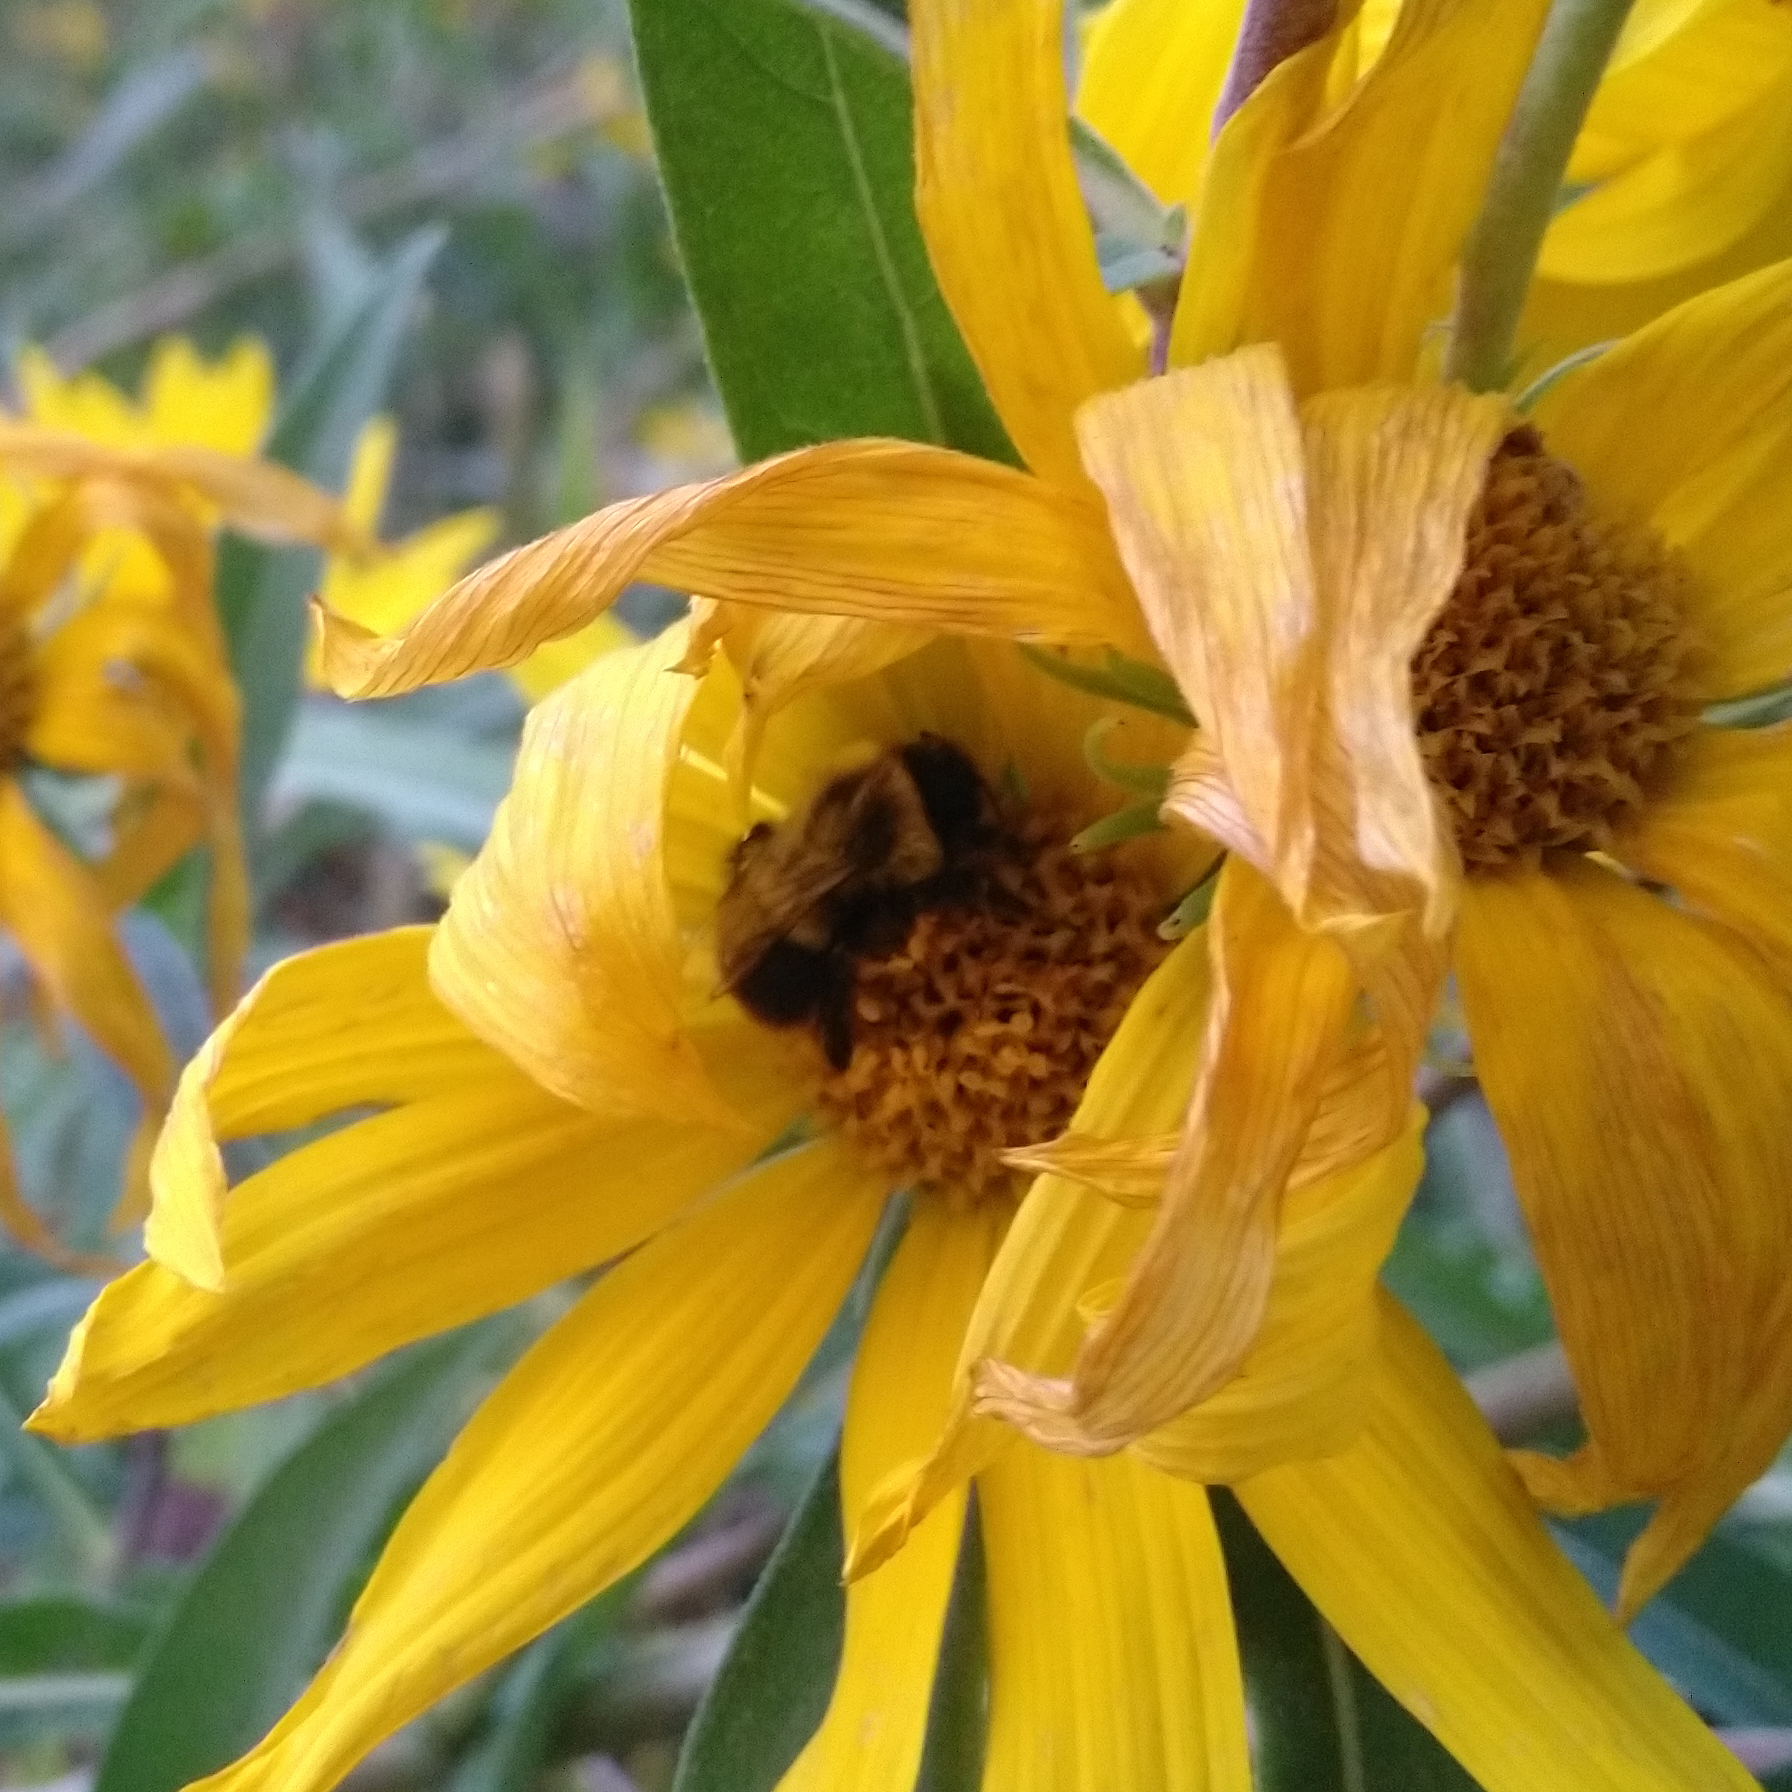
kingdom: Animalia
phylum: Arthropoda
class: Insecta
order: Hymenoptera
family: Apidae
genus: Bombus
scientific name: Bombus impatiens
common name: Common eastern bumble bee
